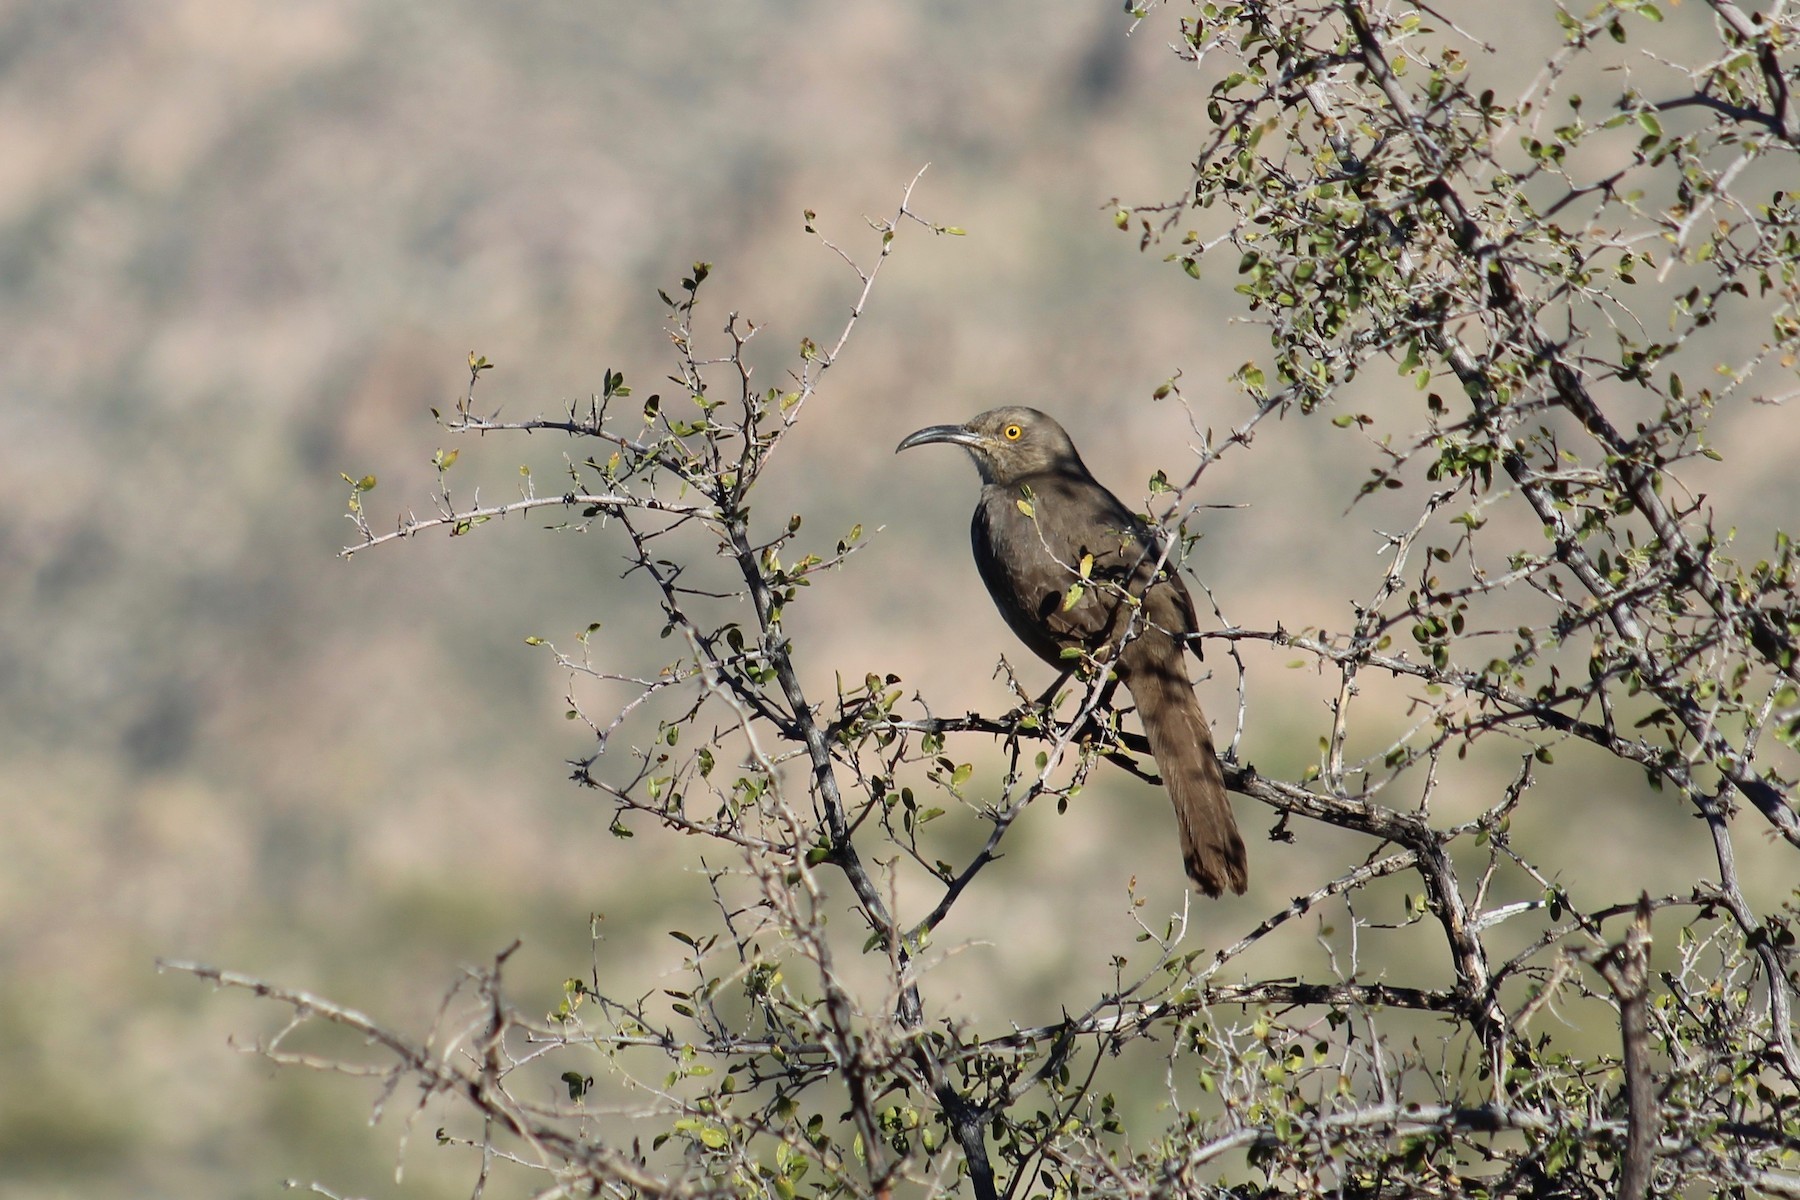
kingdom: Animalia
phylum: Chordata
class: Aves
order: Passeriformes
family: Mimidae
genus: Toxostoma
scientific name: Toxostoma curvirostre
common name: Curve-billed thrasher
